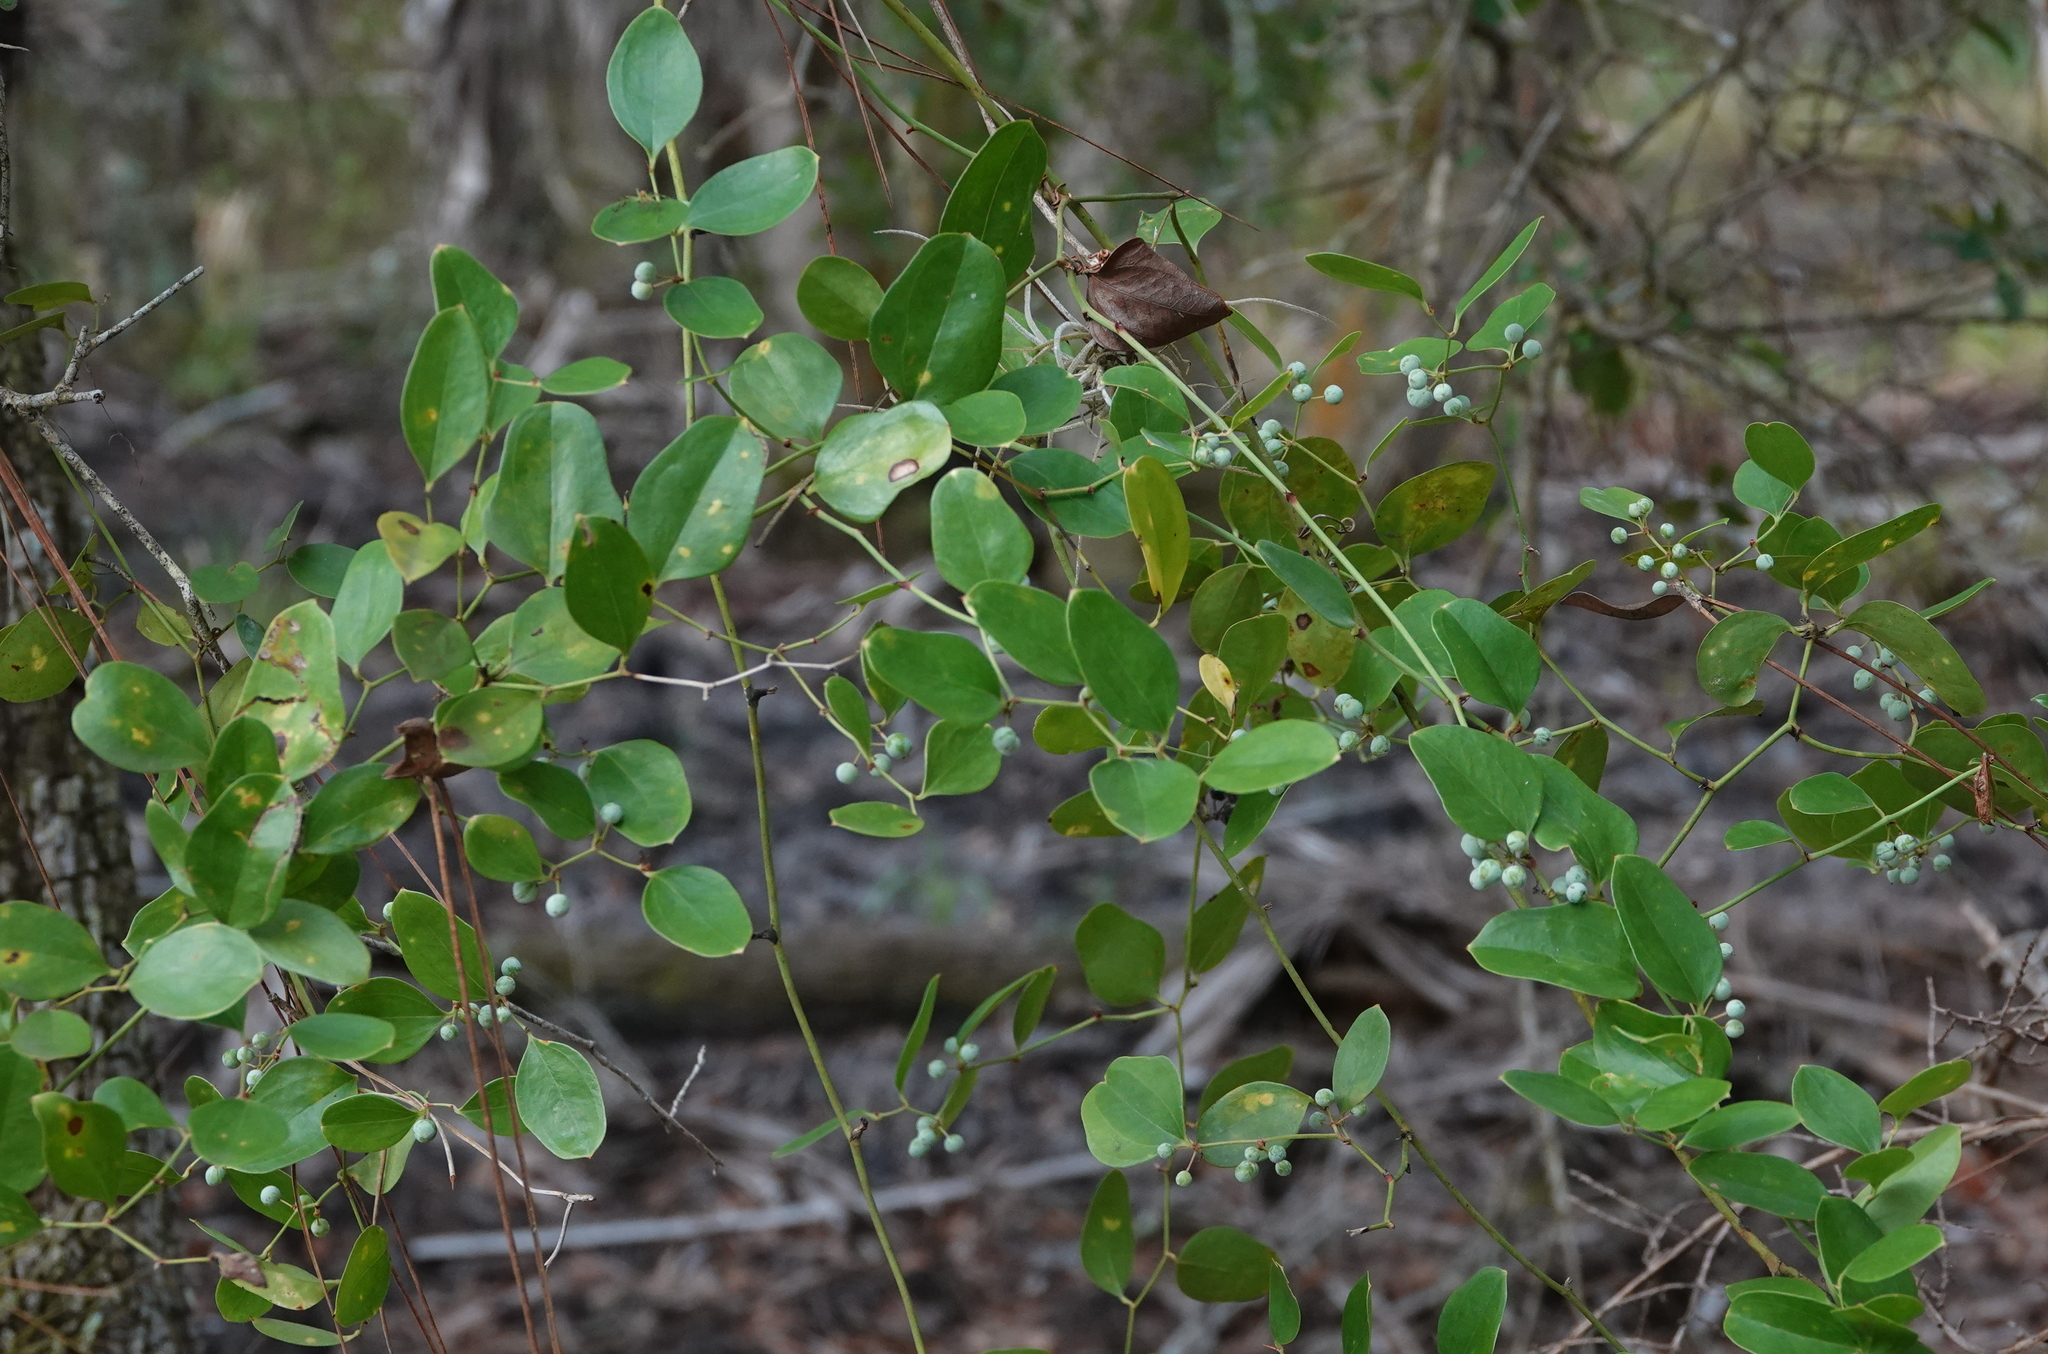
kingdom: Plantae
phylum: Tracheophyta
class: Liliopsida
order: Liliales
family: Smilacaceae
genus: Smilax
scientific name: Smilax auriculata
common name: Wild bamboo
